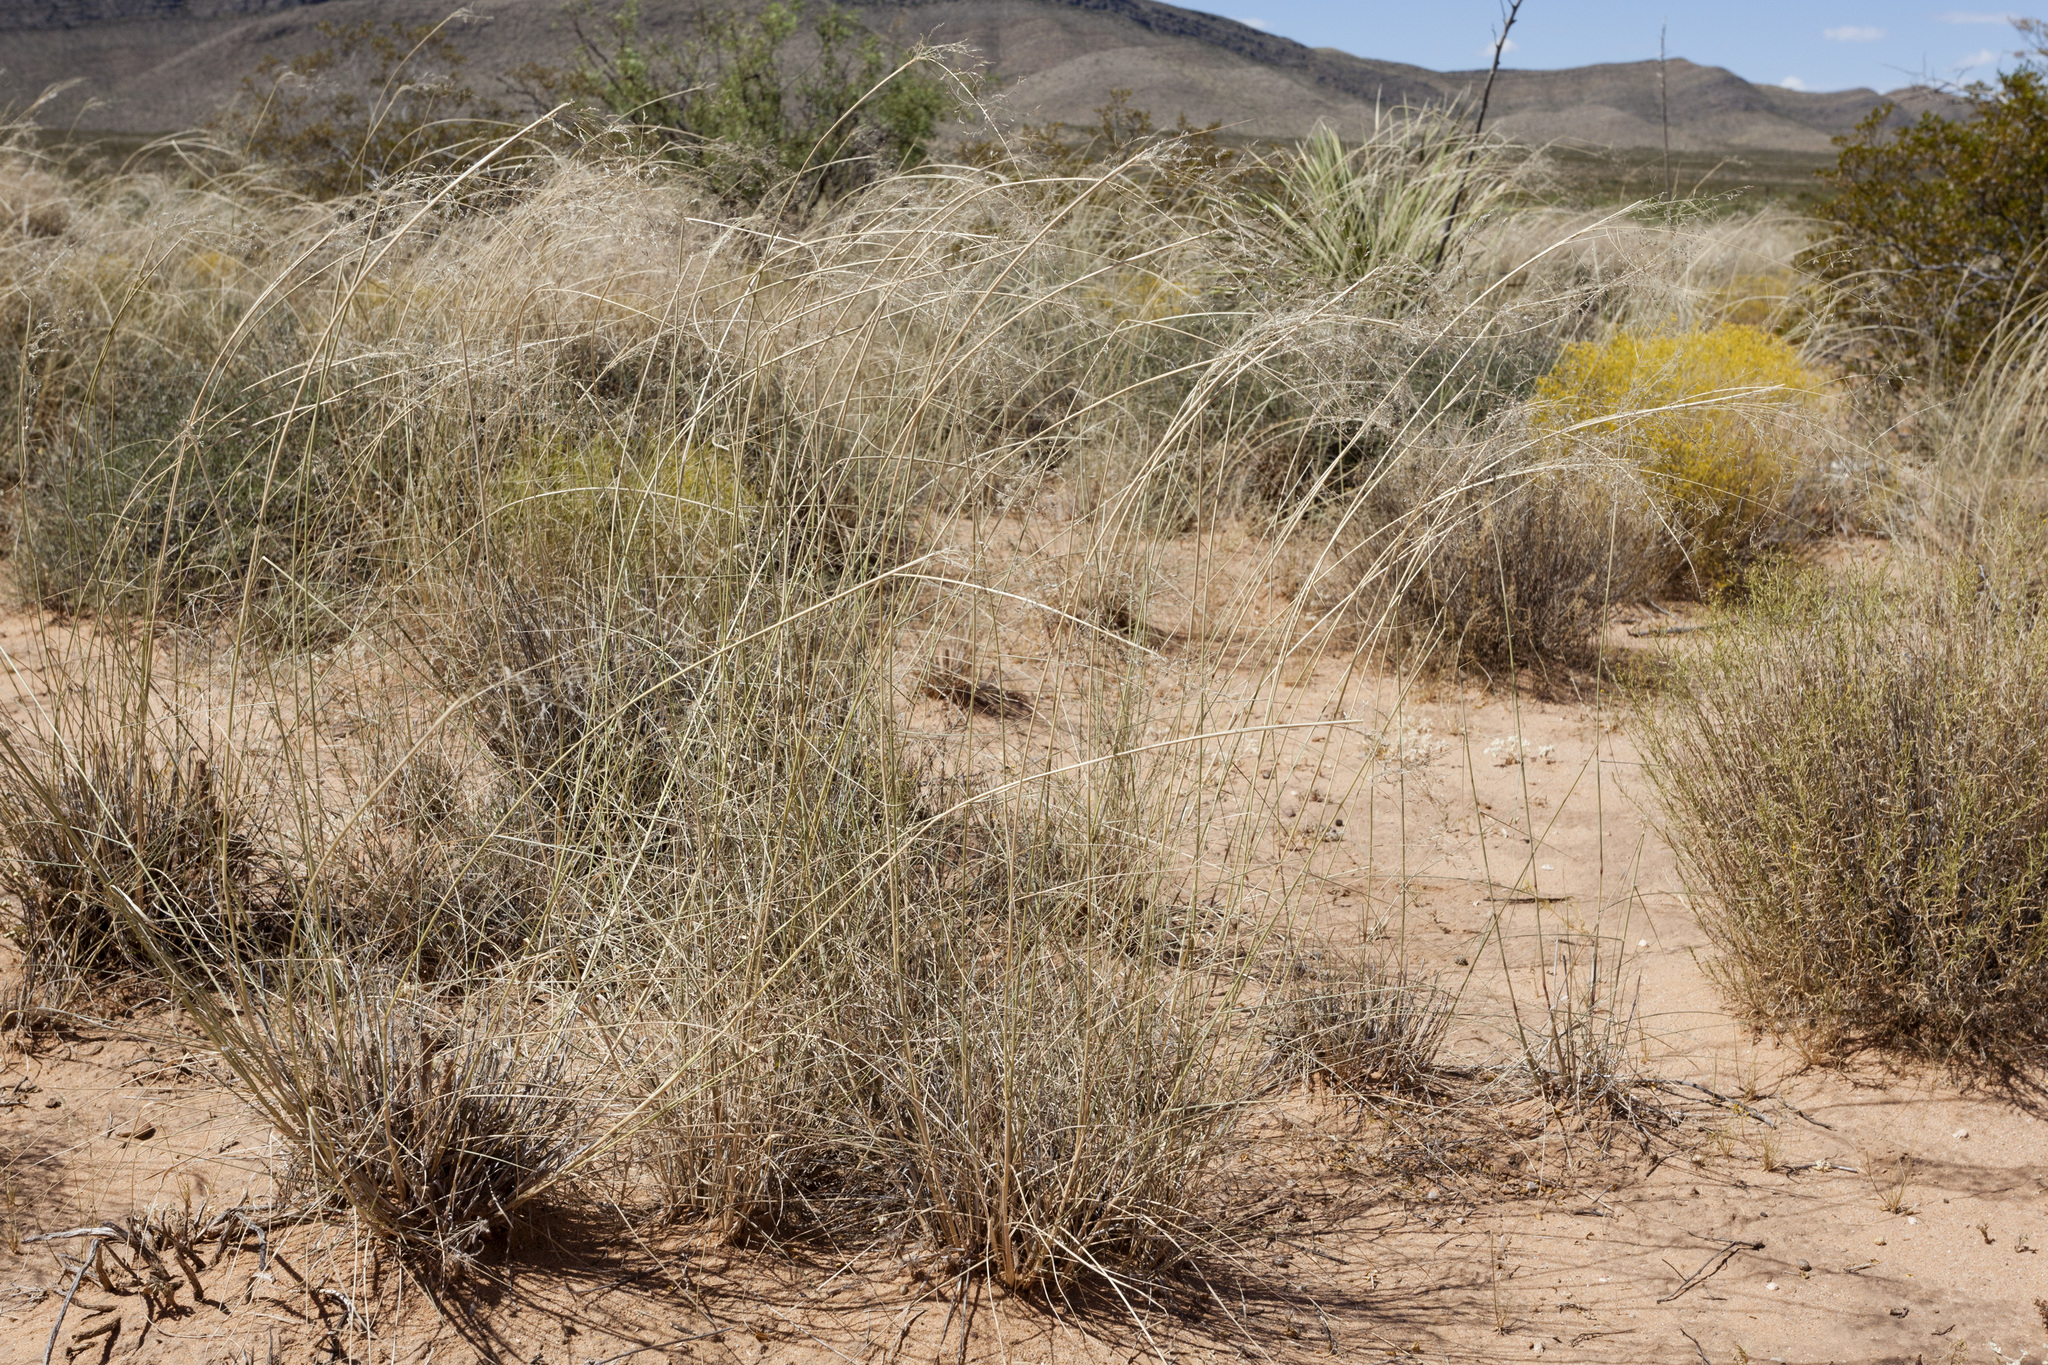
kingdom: Plantae
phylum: Tracheophyta
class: Liliopsida
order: Poales
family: Poaceae
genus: Sporobolus
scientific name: Sporobolus flexuosus
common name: Mesa dropseed
